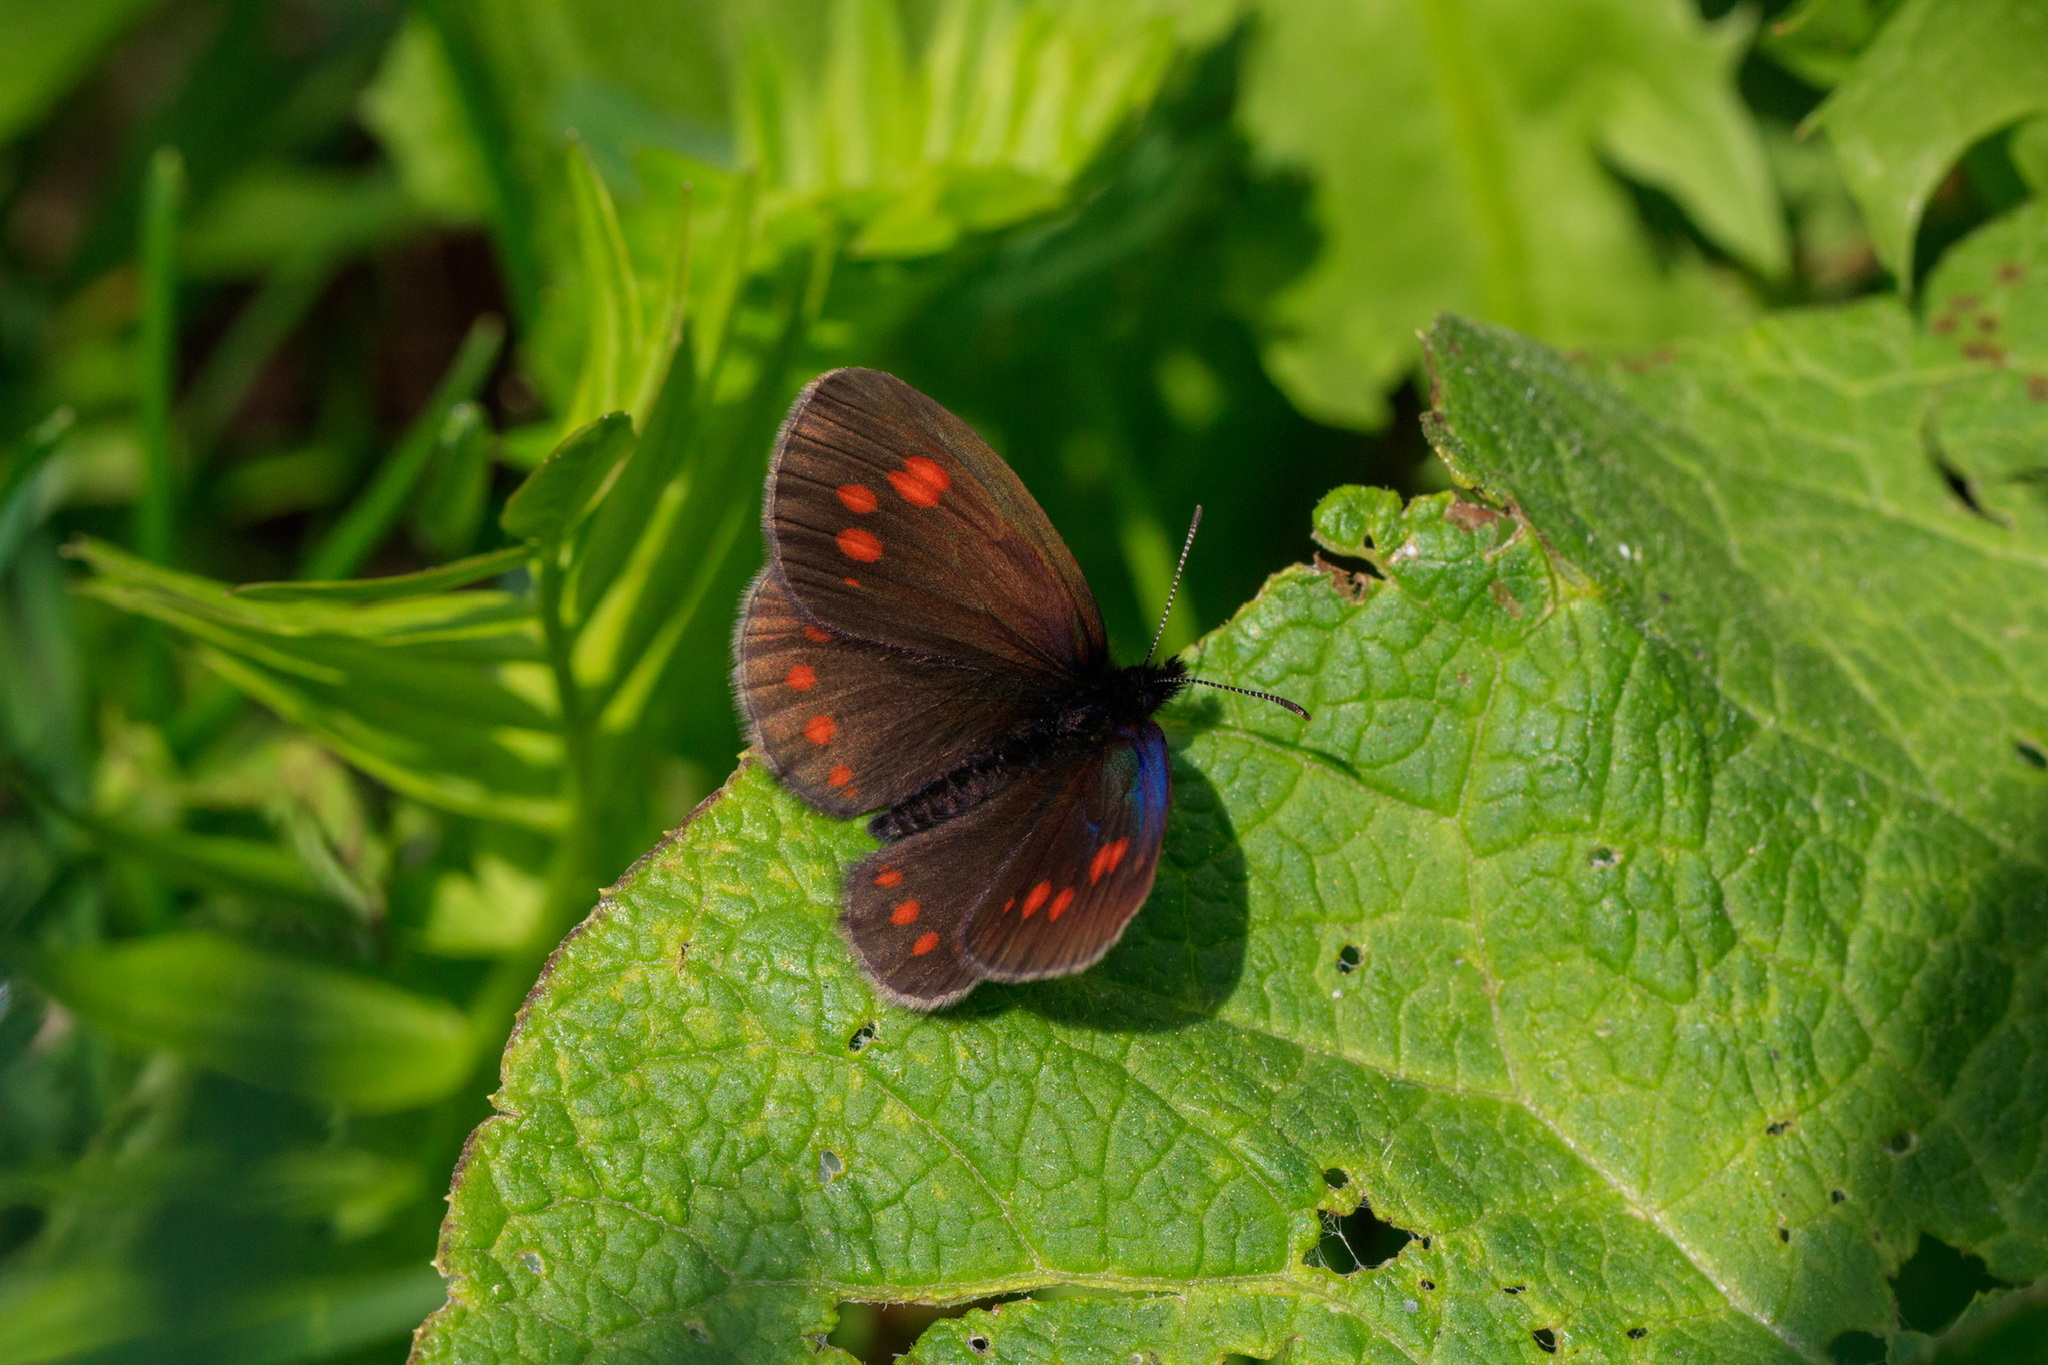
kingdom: Animalia
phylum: Arthropoda
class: Insecta
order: Lepidoptera
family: Nymphalidae
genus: Erebia
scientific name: Erebia turanica
